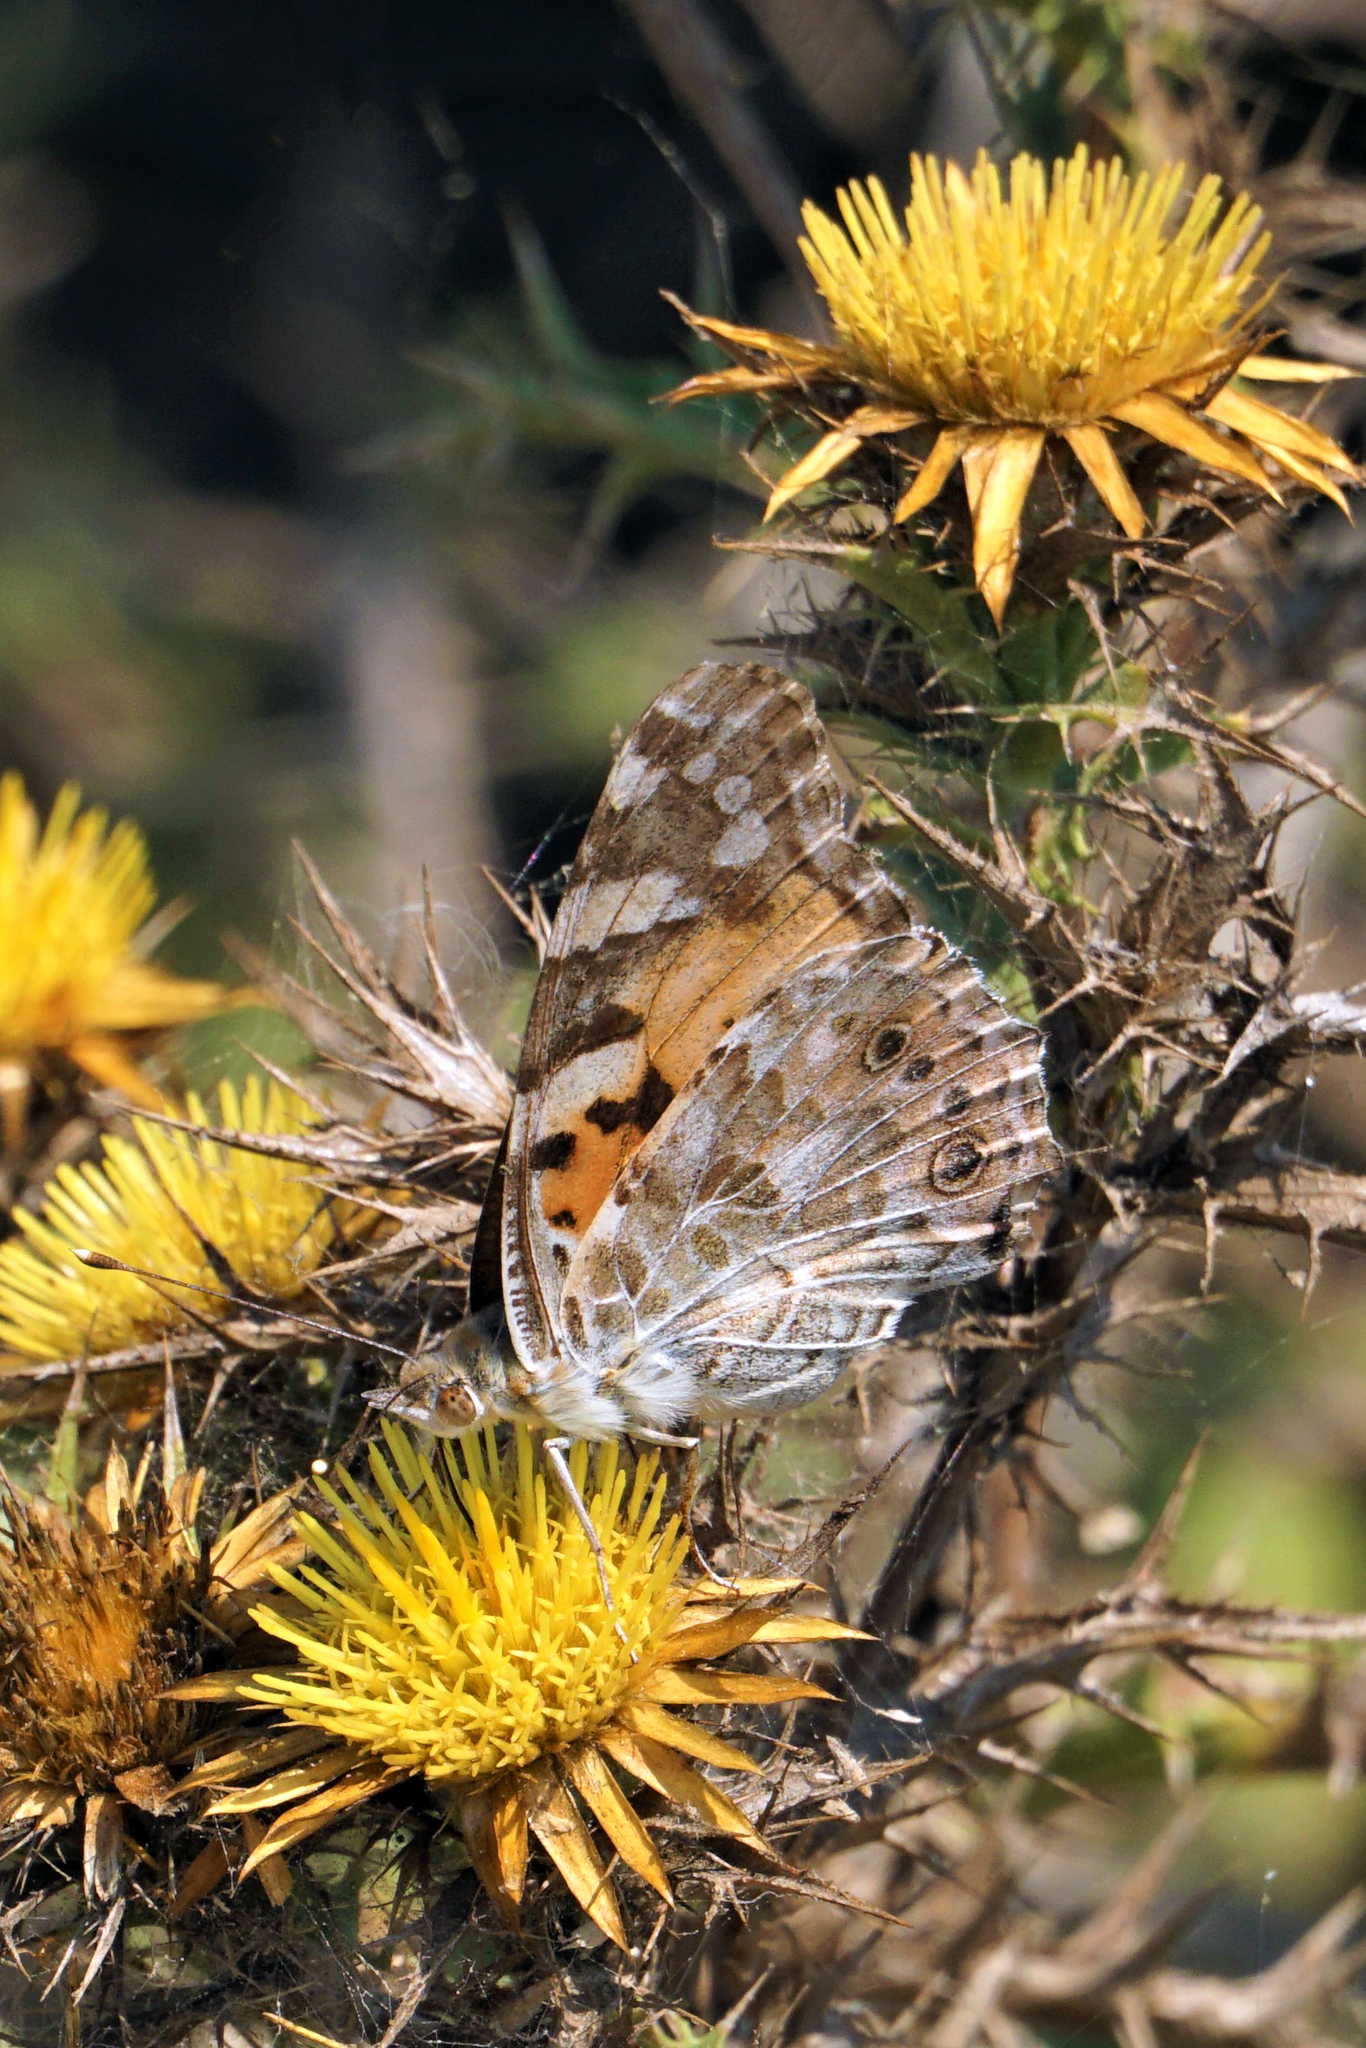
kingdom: Animalia
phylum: Arthropoda
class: Insecta
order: Lepidoptera
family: Nymphalidae
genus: Vanessa
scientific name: Vanessa cardui
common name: Painted lady
